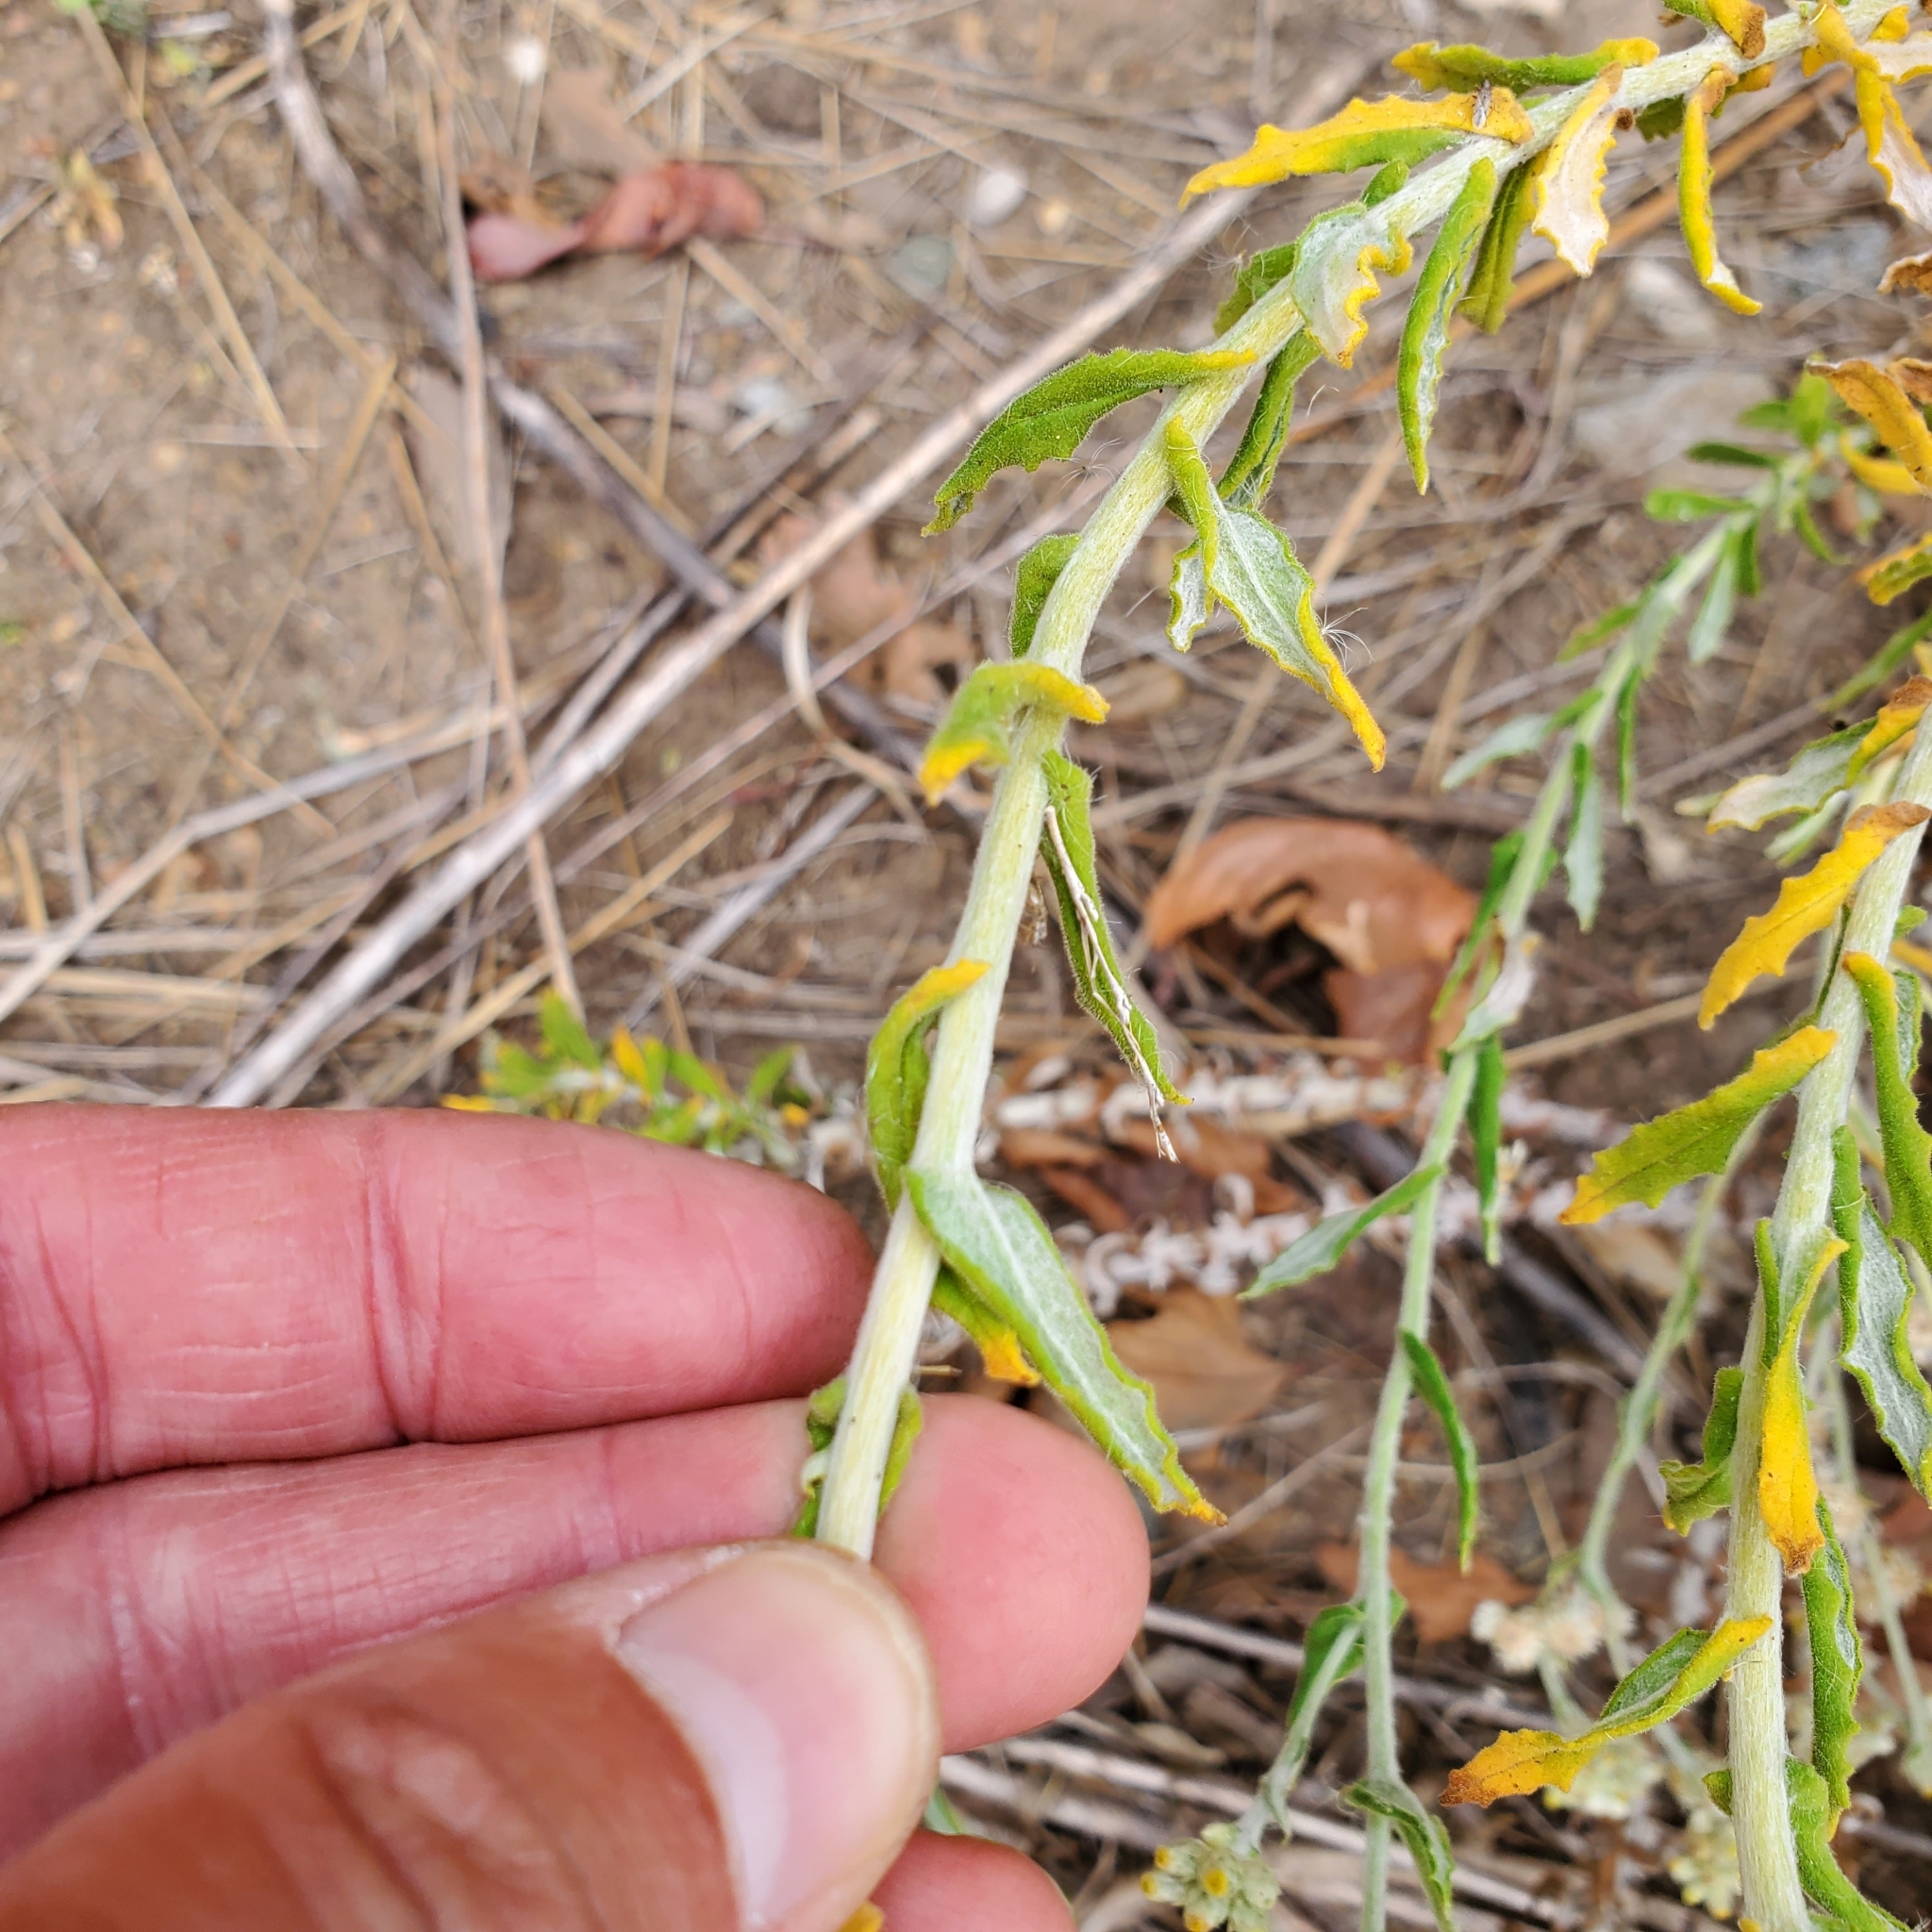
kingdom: Plantae
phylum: Tracheophyta
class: Magnoliopsida
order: Asterales
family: Asteraceae
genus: Pseudognaphalium
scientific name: Pseudognaphalium biolettii
